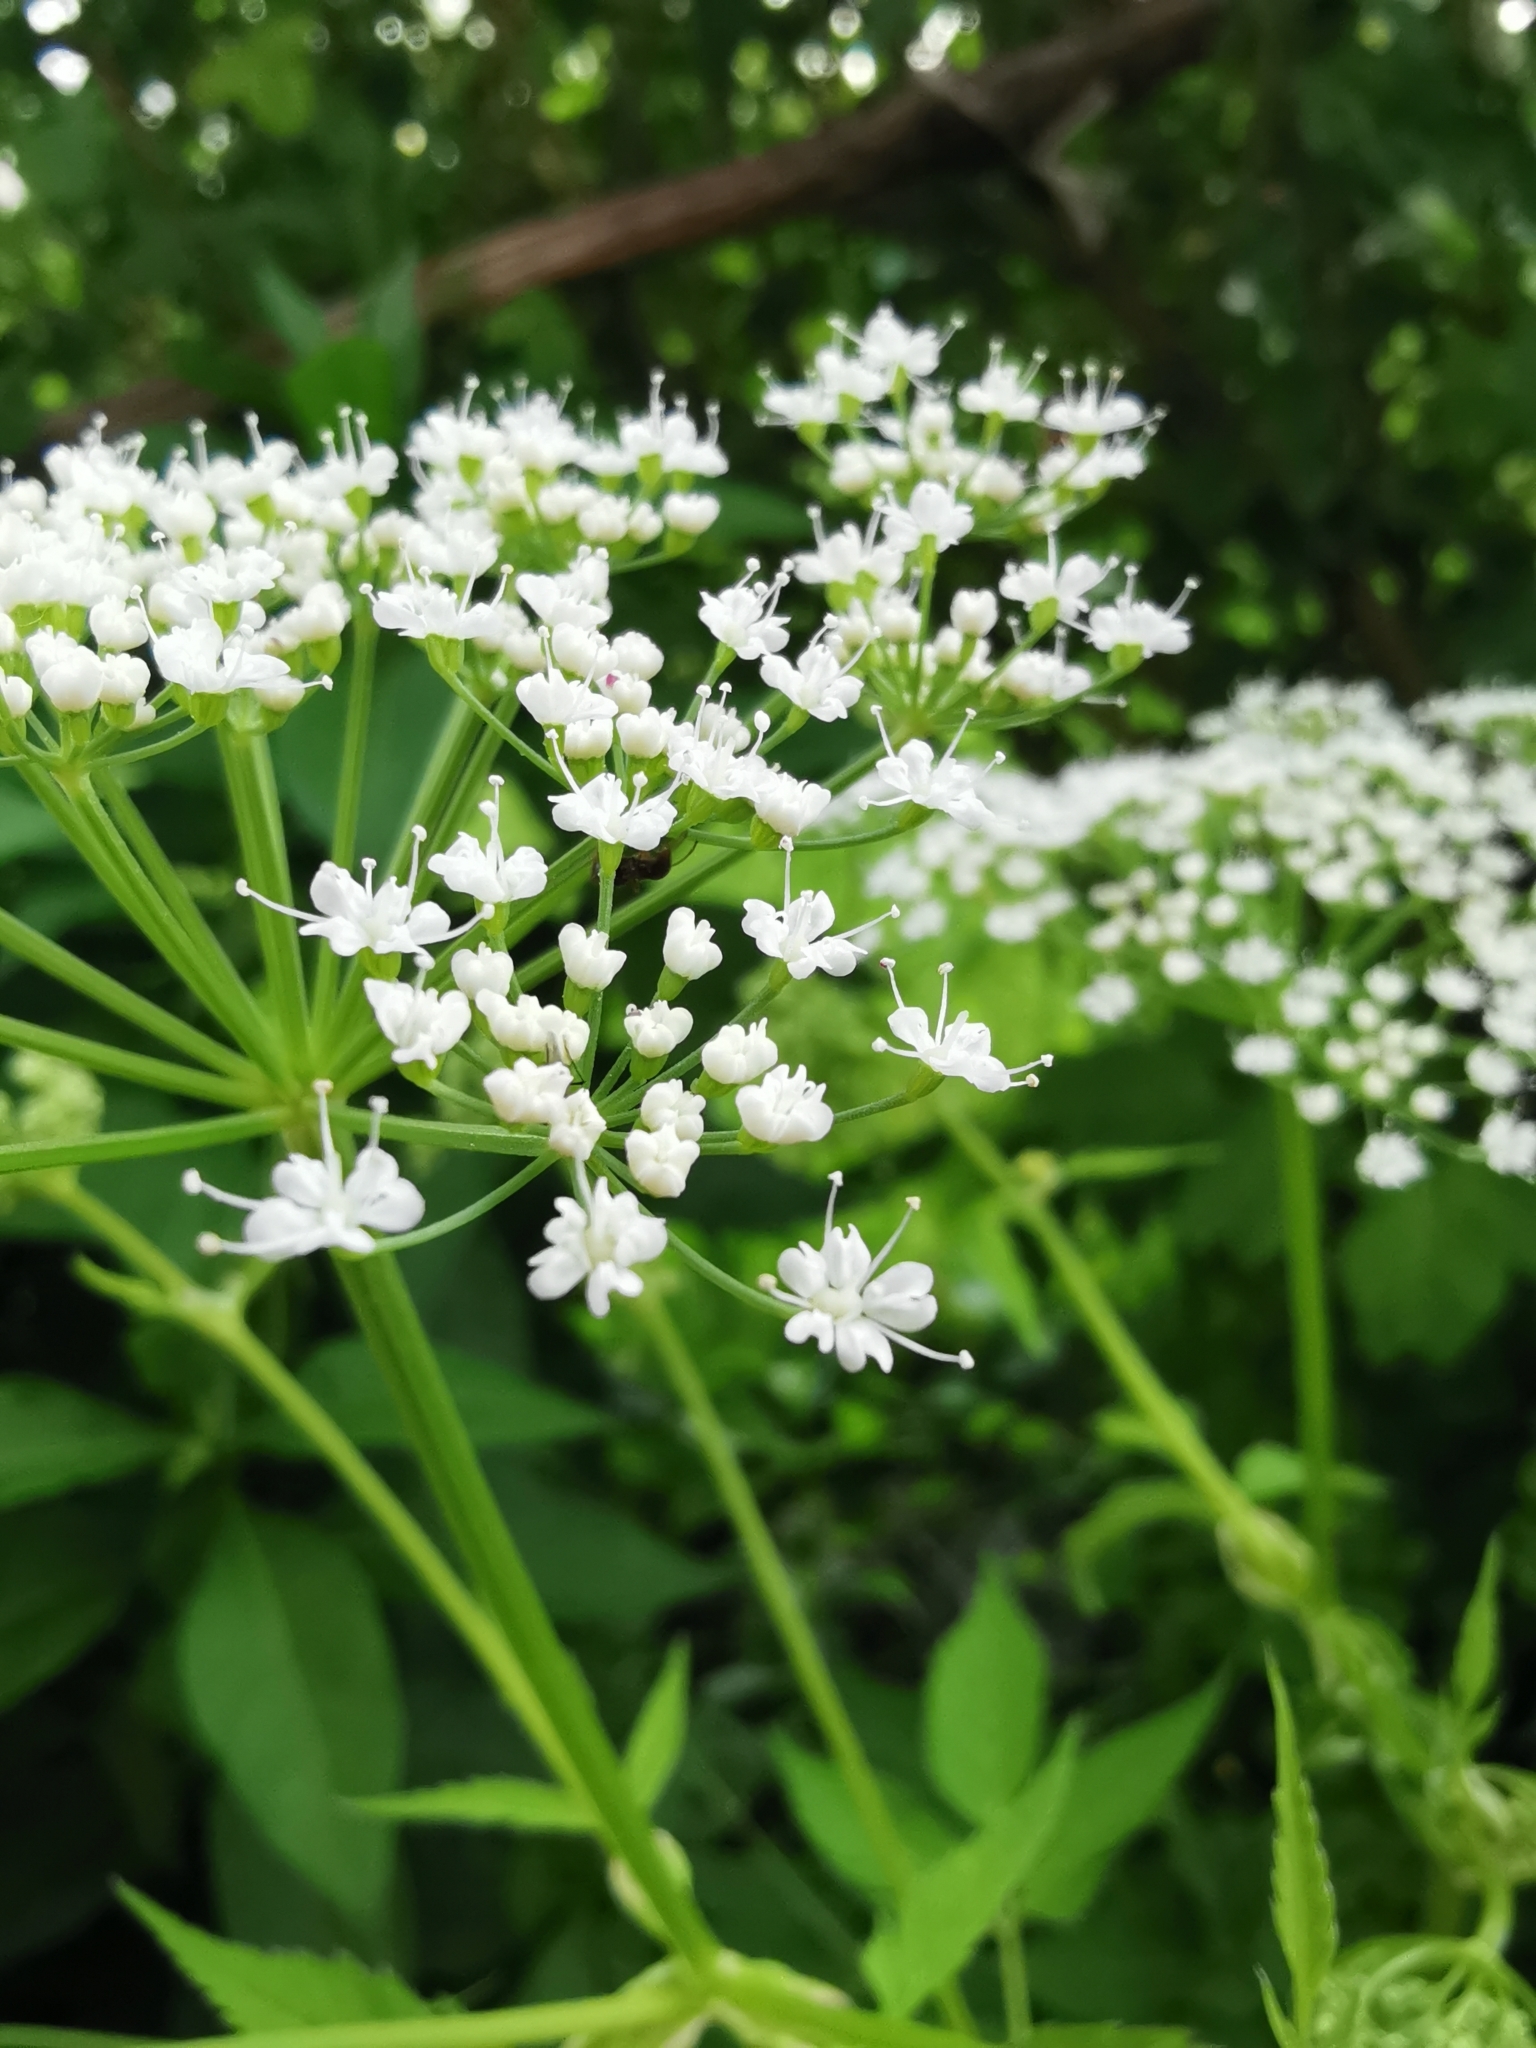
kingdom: Plantae
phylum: Tracheophyta
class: Magnoliopsida
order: Apiales
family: Apiaceae
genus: Aegopodium
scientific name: Aegopodium podagraria
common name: Ground-elder
